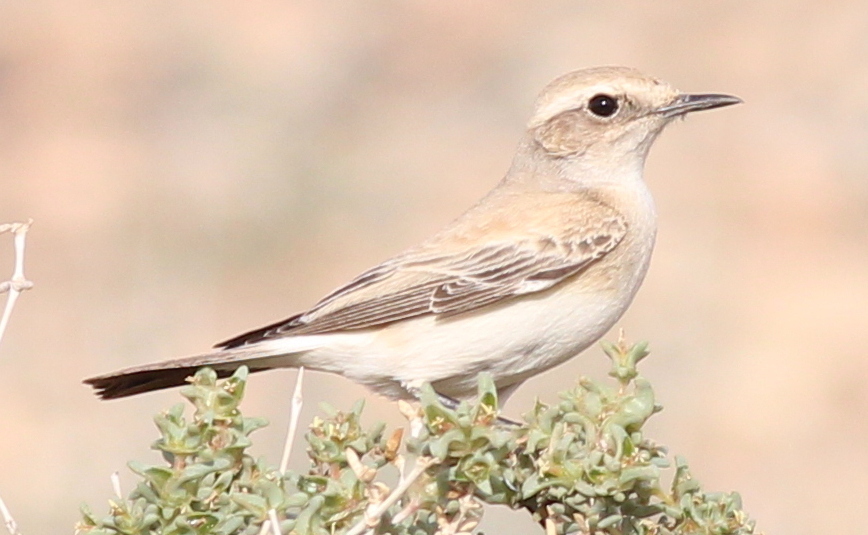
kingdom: Animalia
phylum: Chordata
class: Aves
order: Passeriformes
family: Muscicapidae
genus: Oenanthe
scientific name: Oenanthe deserti
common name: Desert wheatear
